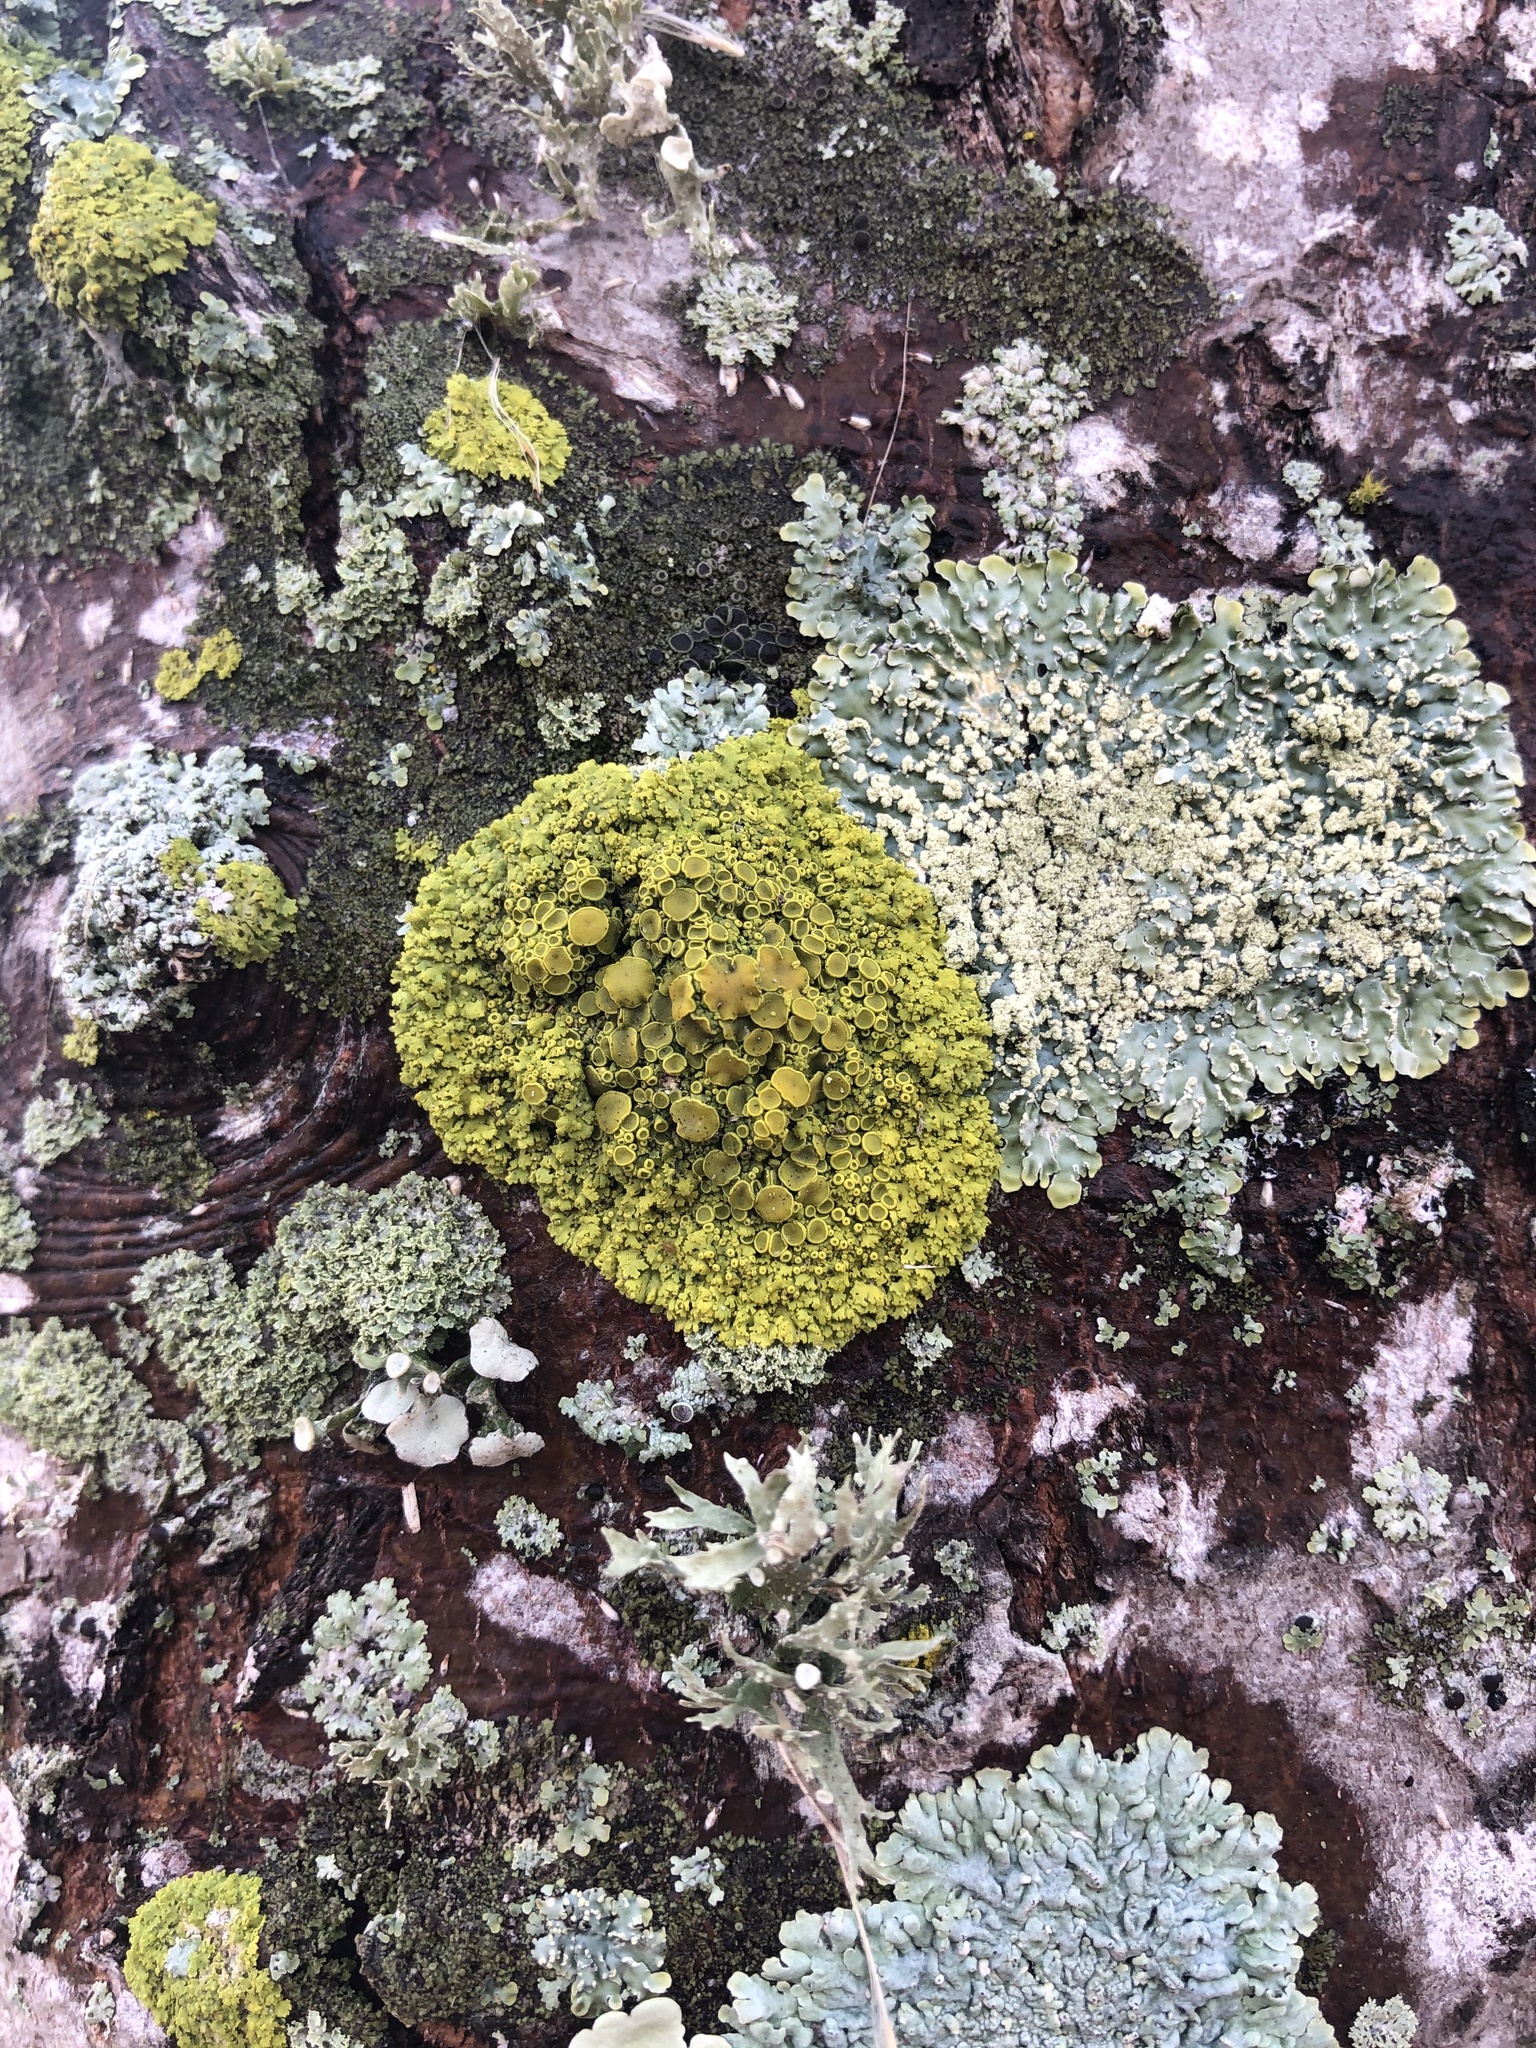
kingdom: Fungi
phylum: Ascomycota
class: Candelariomycetes
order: Candelariales
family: Candelariaceae
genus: Candelaria
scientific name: Candelaria fibrosa
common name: Fringed candleflame lichen
